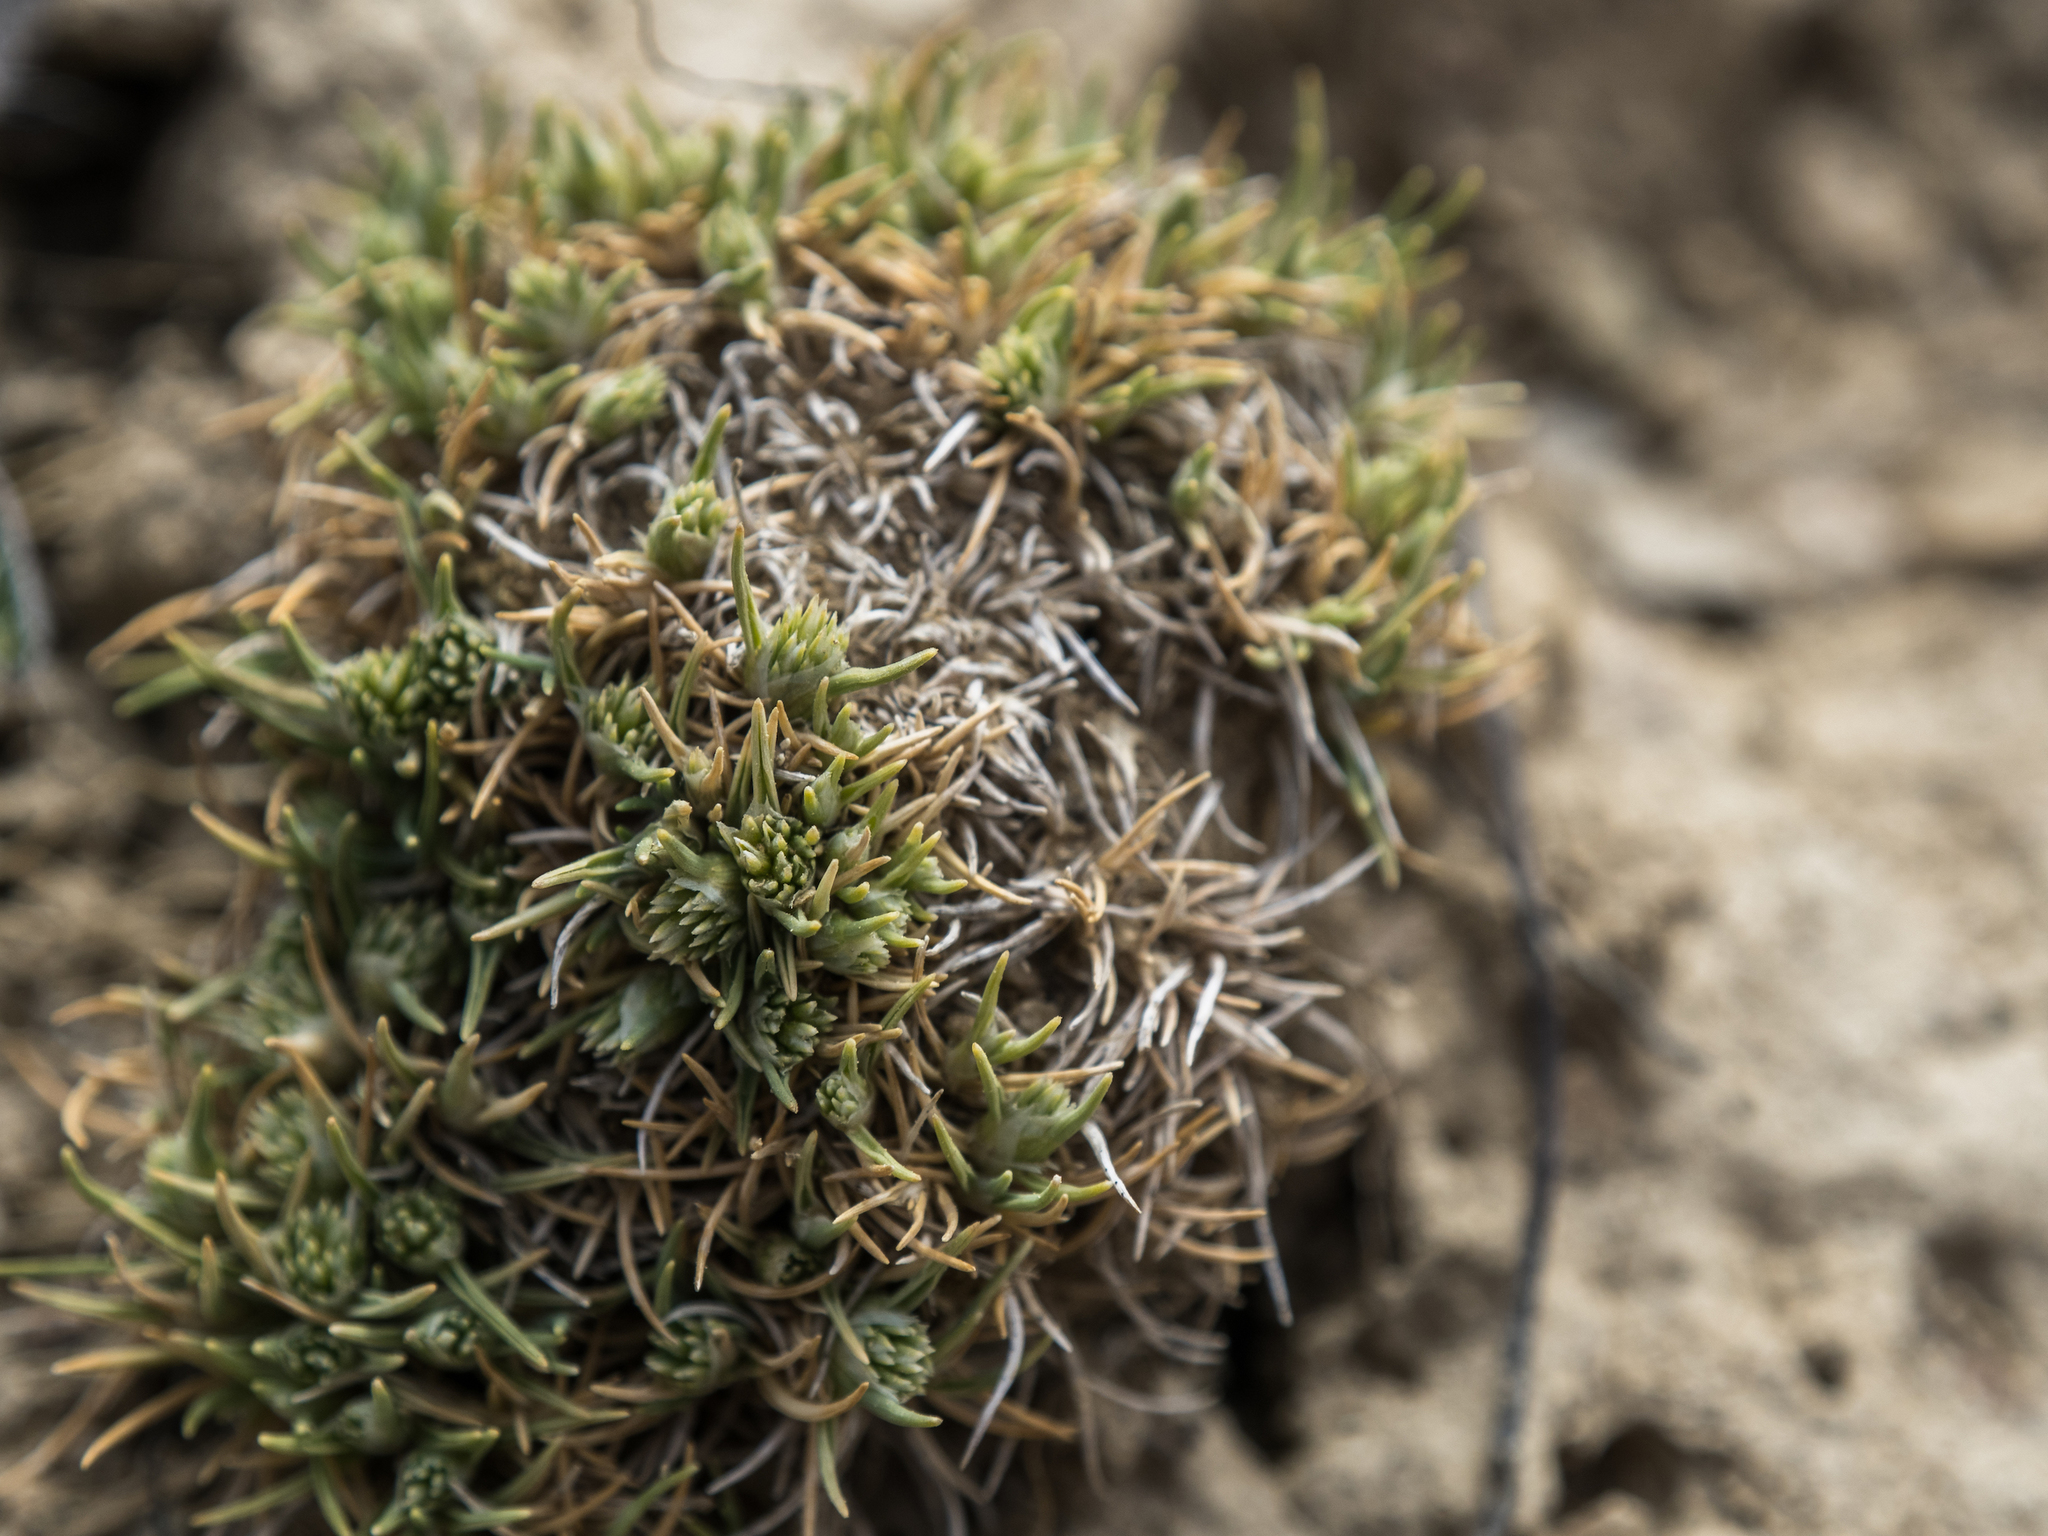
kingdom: Plantae
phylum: Tracheophyta
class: Liliopsida
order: Poales
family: Poaceae
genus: Agrostis
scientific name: Agrostis muscosa
